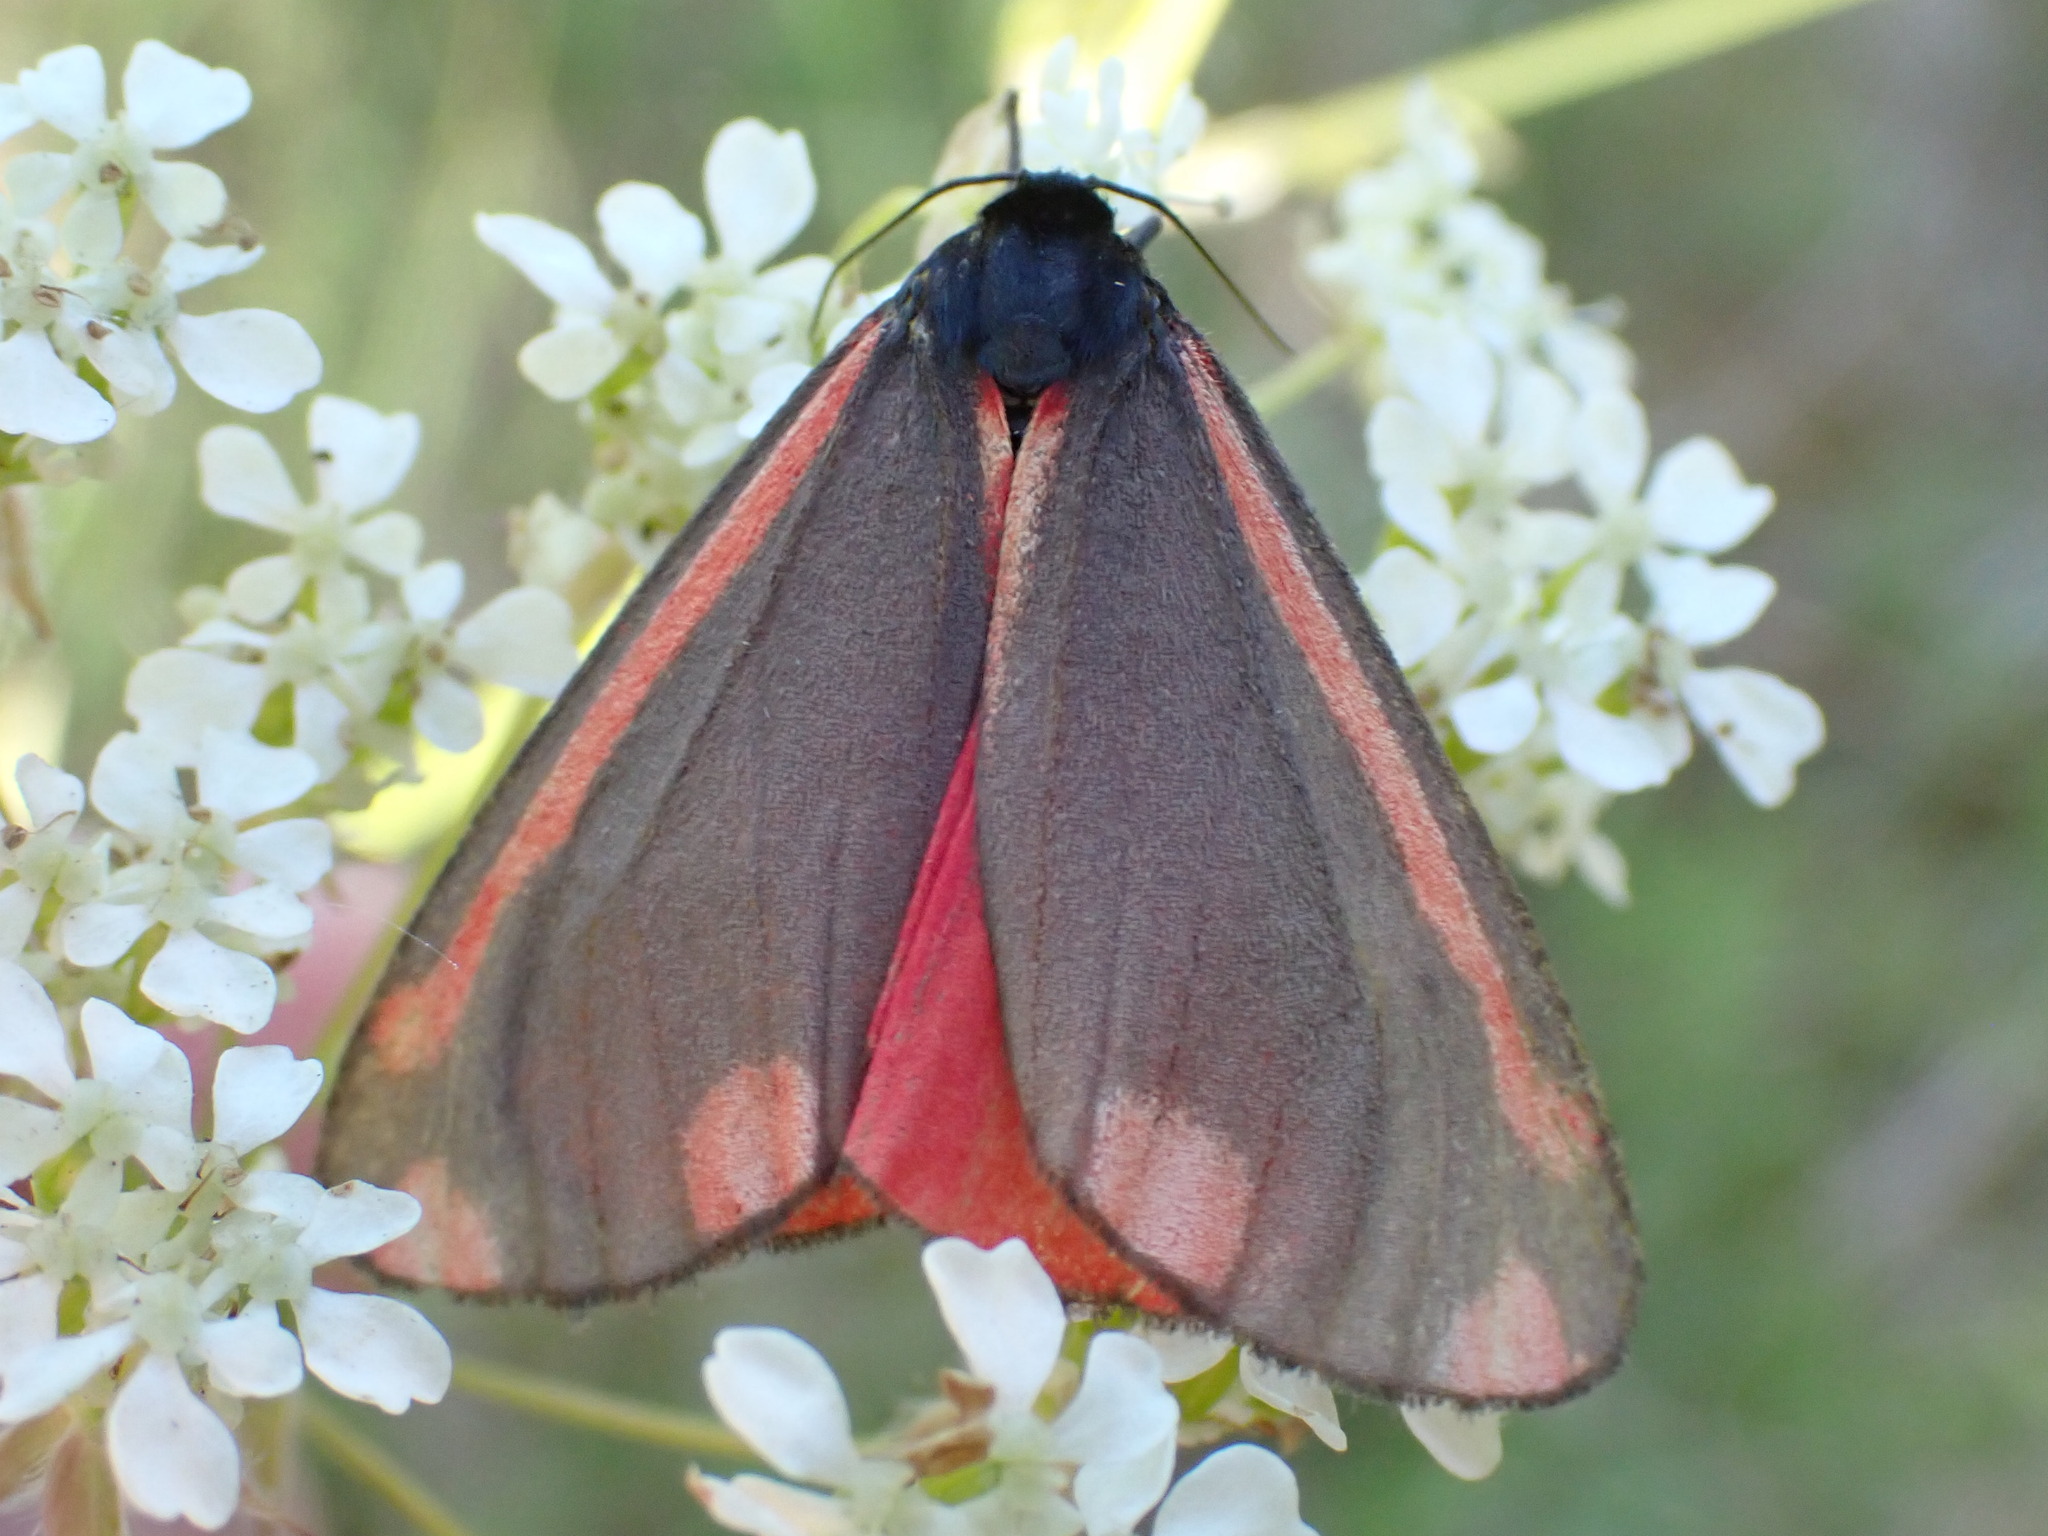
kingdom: Animalia
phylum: Arthropoda
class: Insecta
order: Lepidoptera
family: Erebidae
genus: Tyria
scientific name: Tyria jacobaeae
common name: Cinnabar
